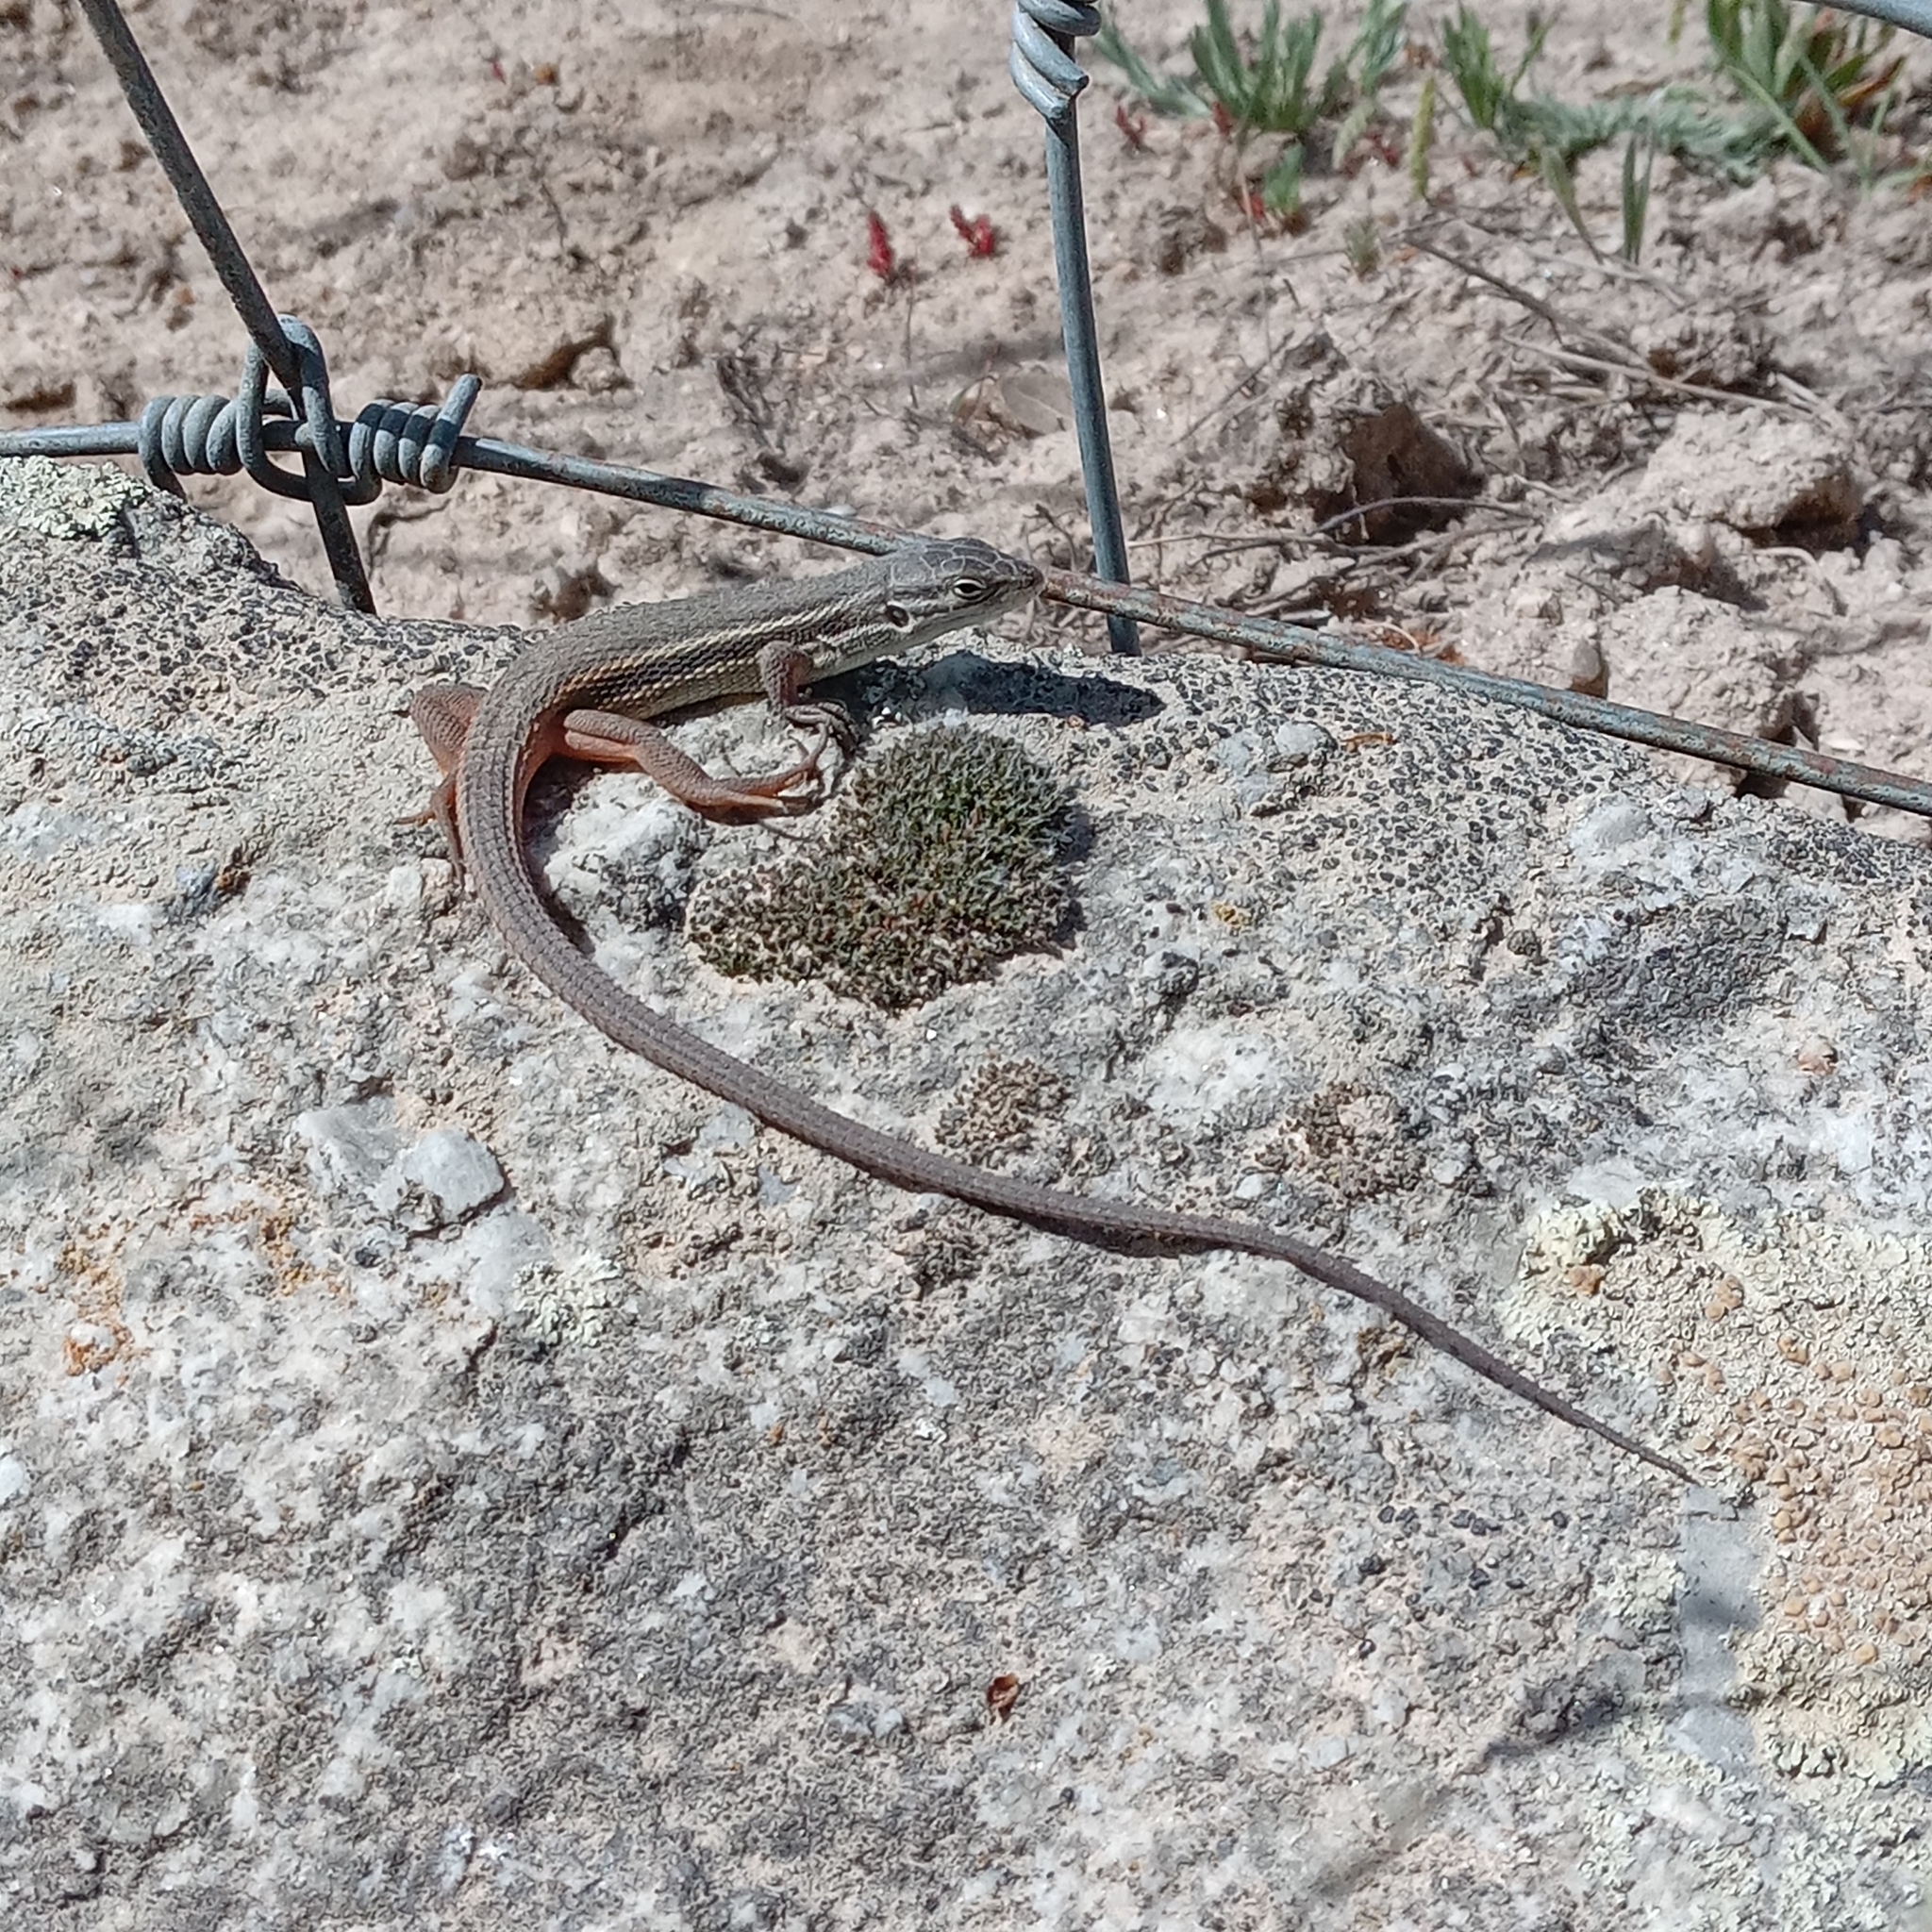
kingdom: Animalia
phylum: Chordata
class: Squamata
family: Lacertidae
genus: Psammodromus
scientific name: Psammodromus algirus
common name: Algerian psammodromus
